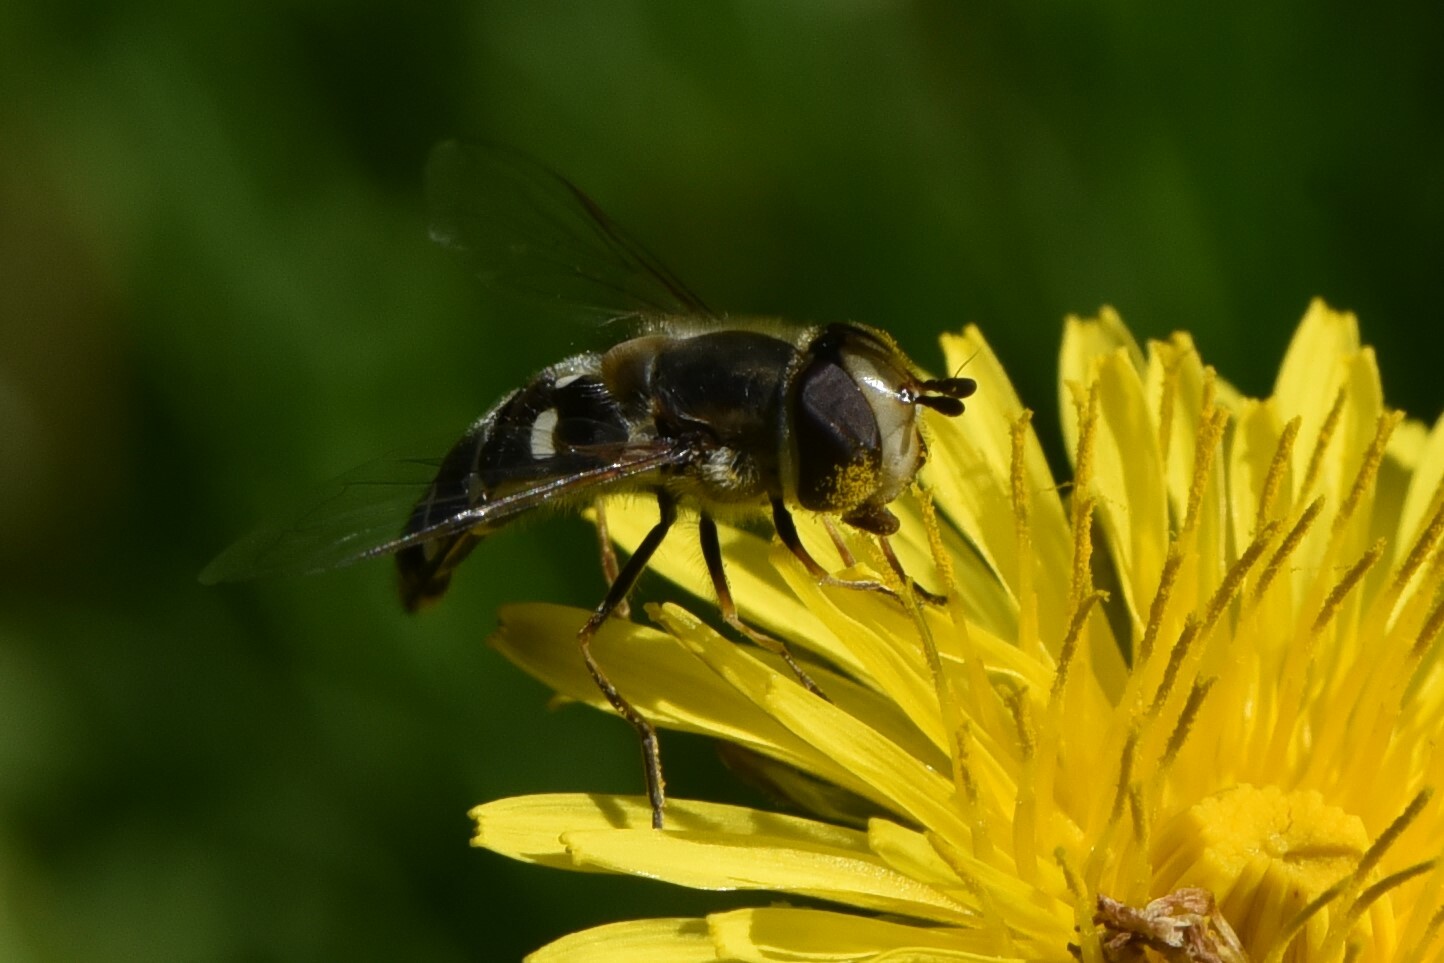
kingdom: Animalia
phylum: Arthropoda
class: Insecta
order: Diptera
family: Syrphidae
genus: Scaeva
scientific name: Scaeva affinis
